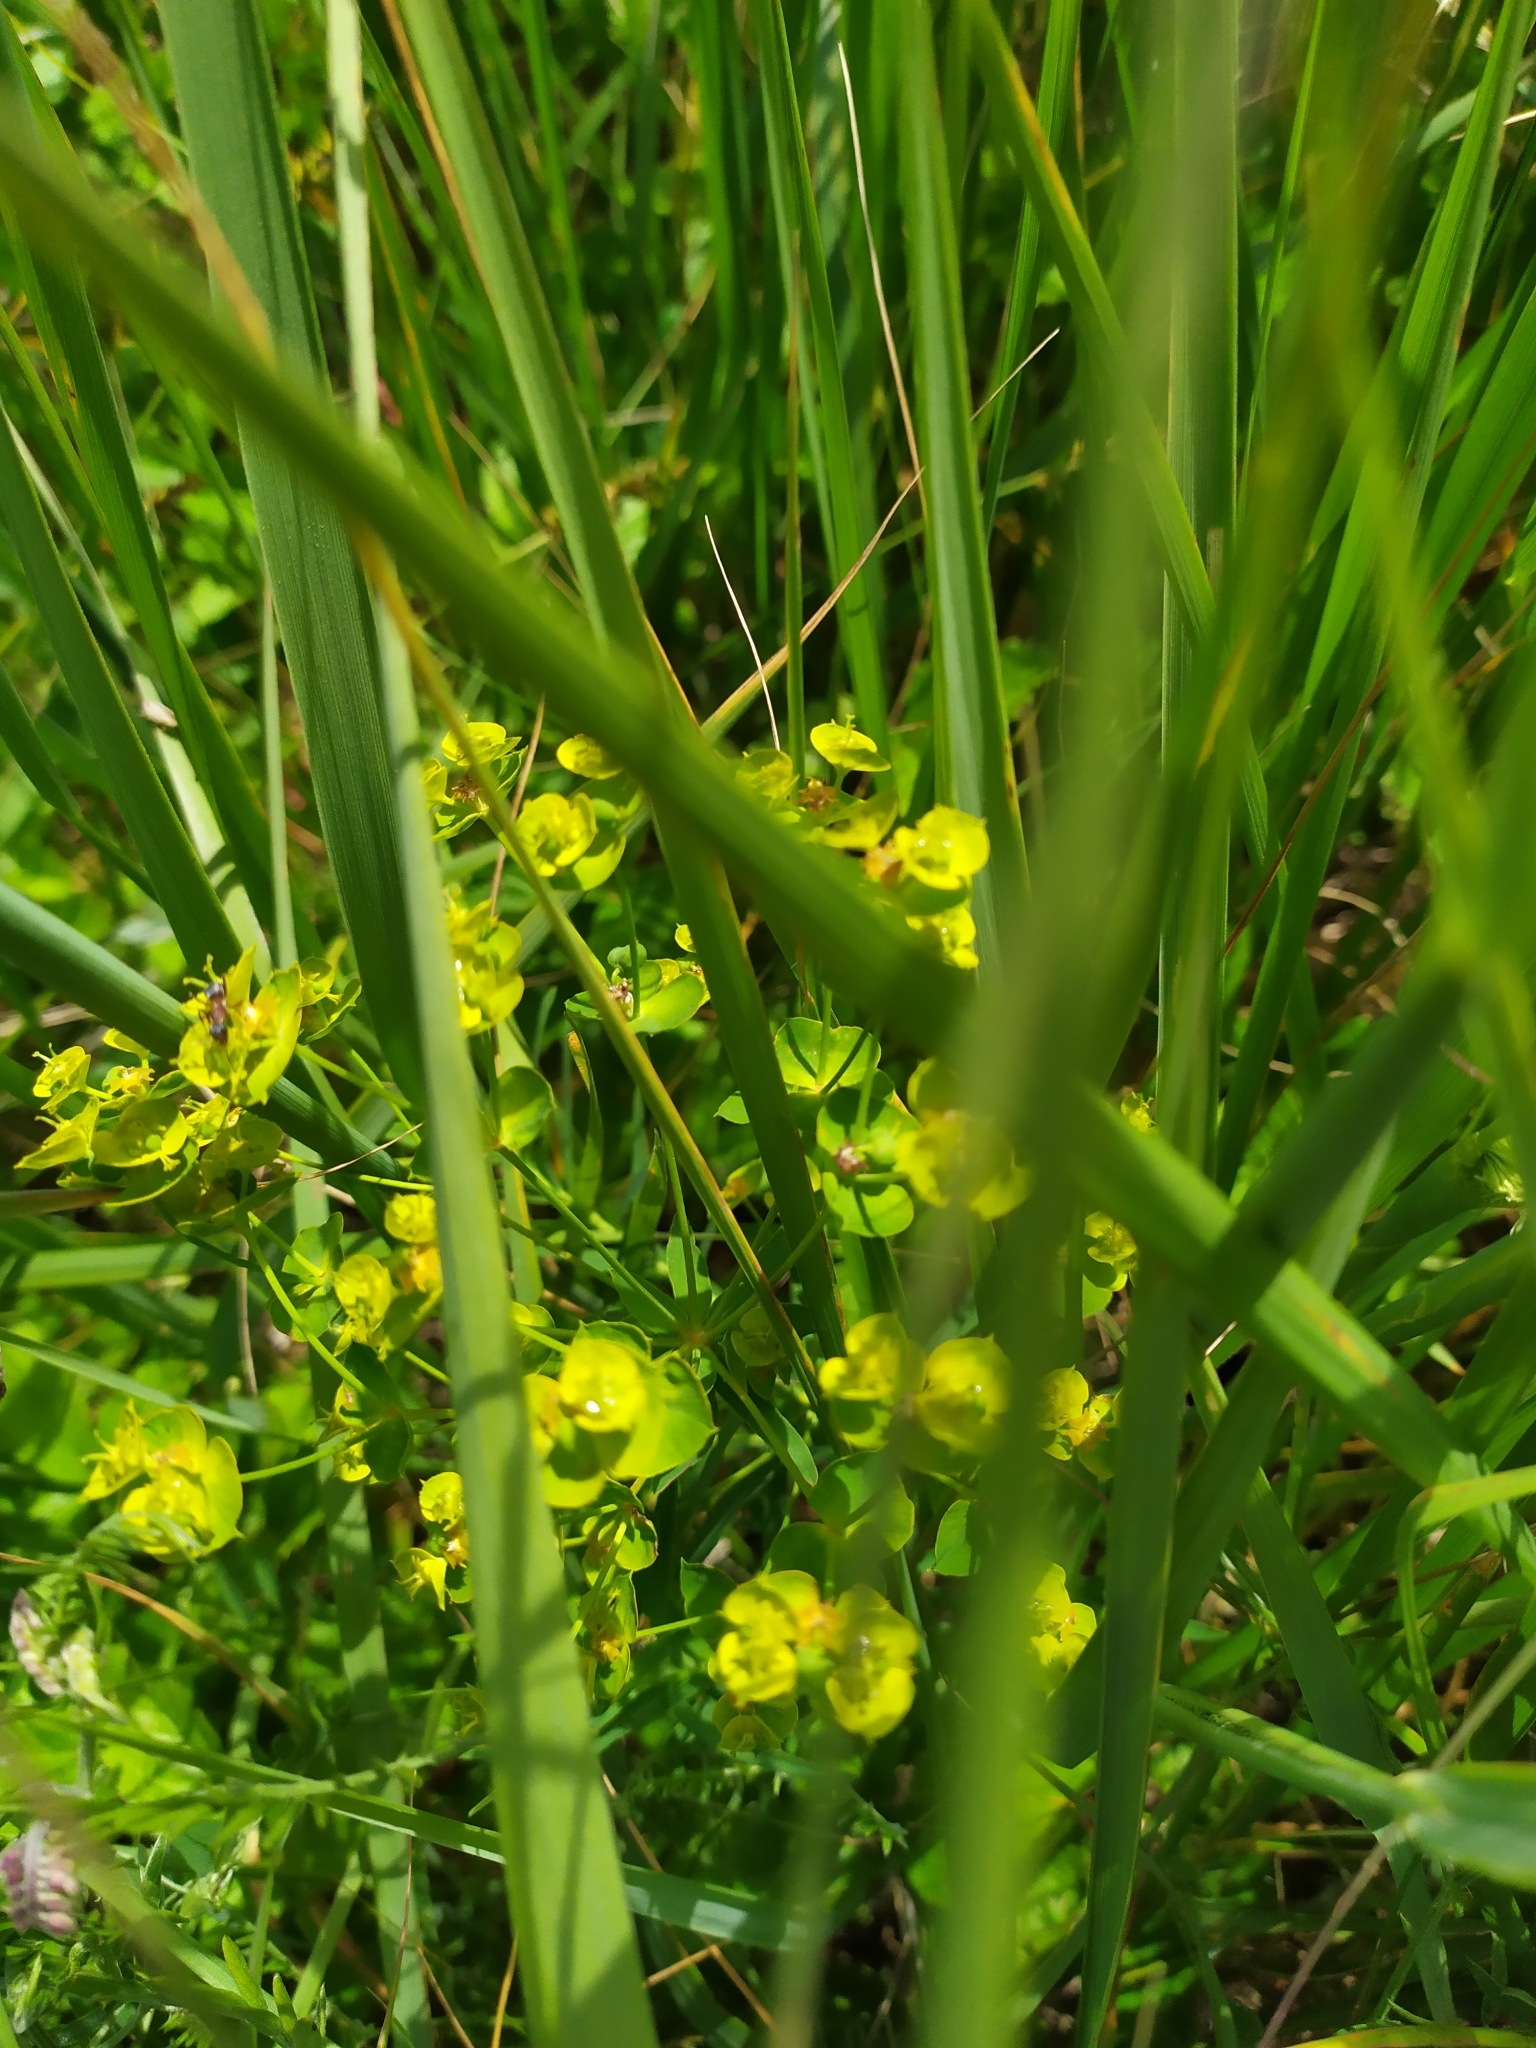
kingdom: Plantae
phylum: Tracheophyta
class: Magnoliopsida
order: Malpighiales
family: Euphorbiaceae
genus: Euphorbia
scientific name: Euphorbia virgata
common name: Leafy spurge
